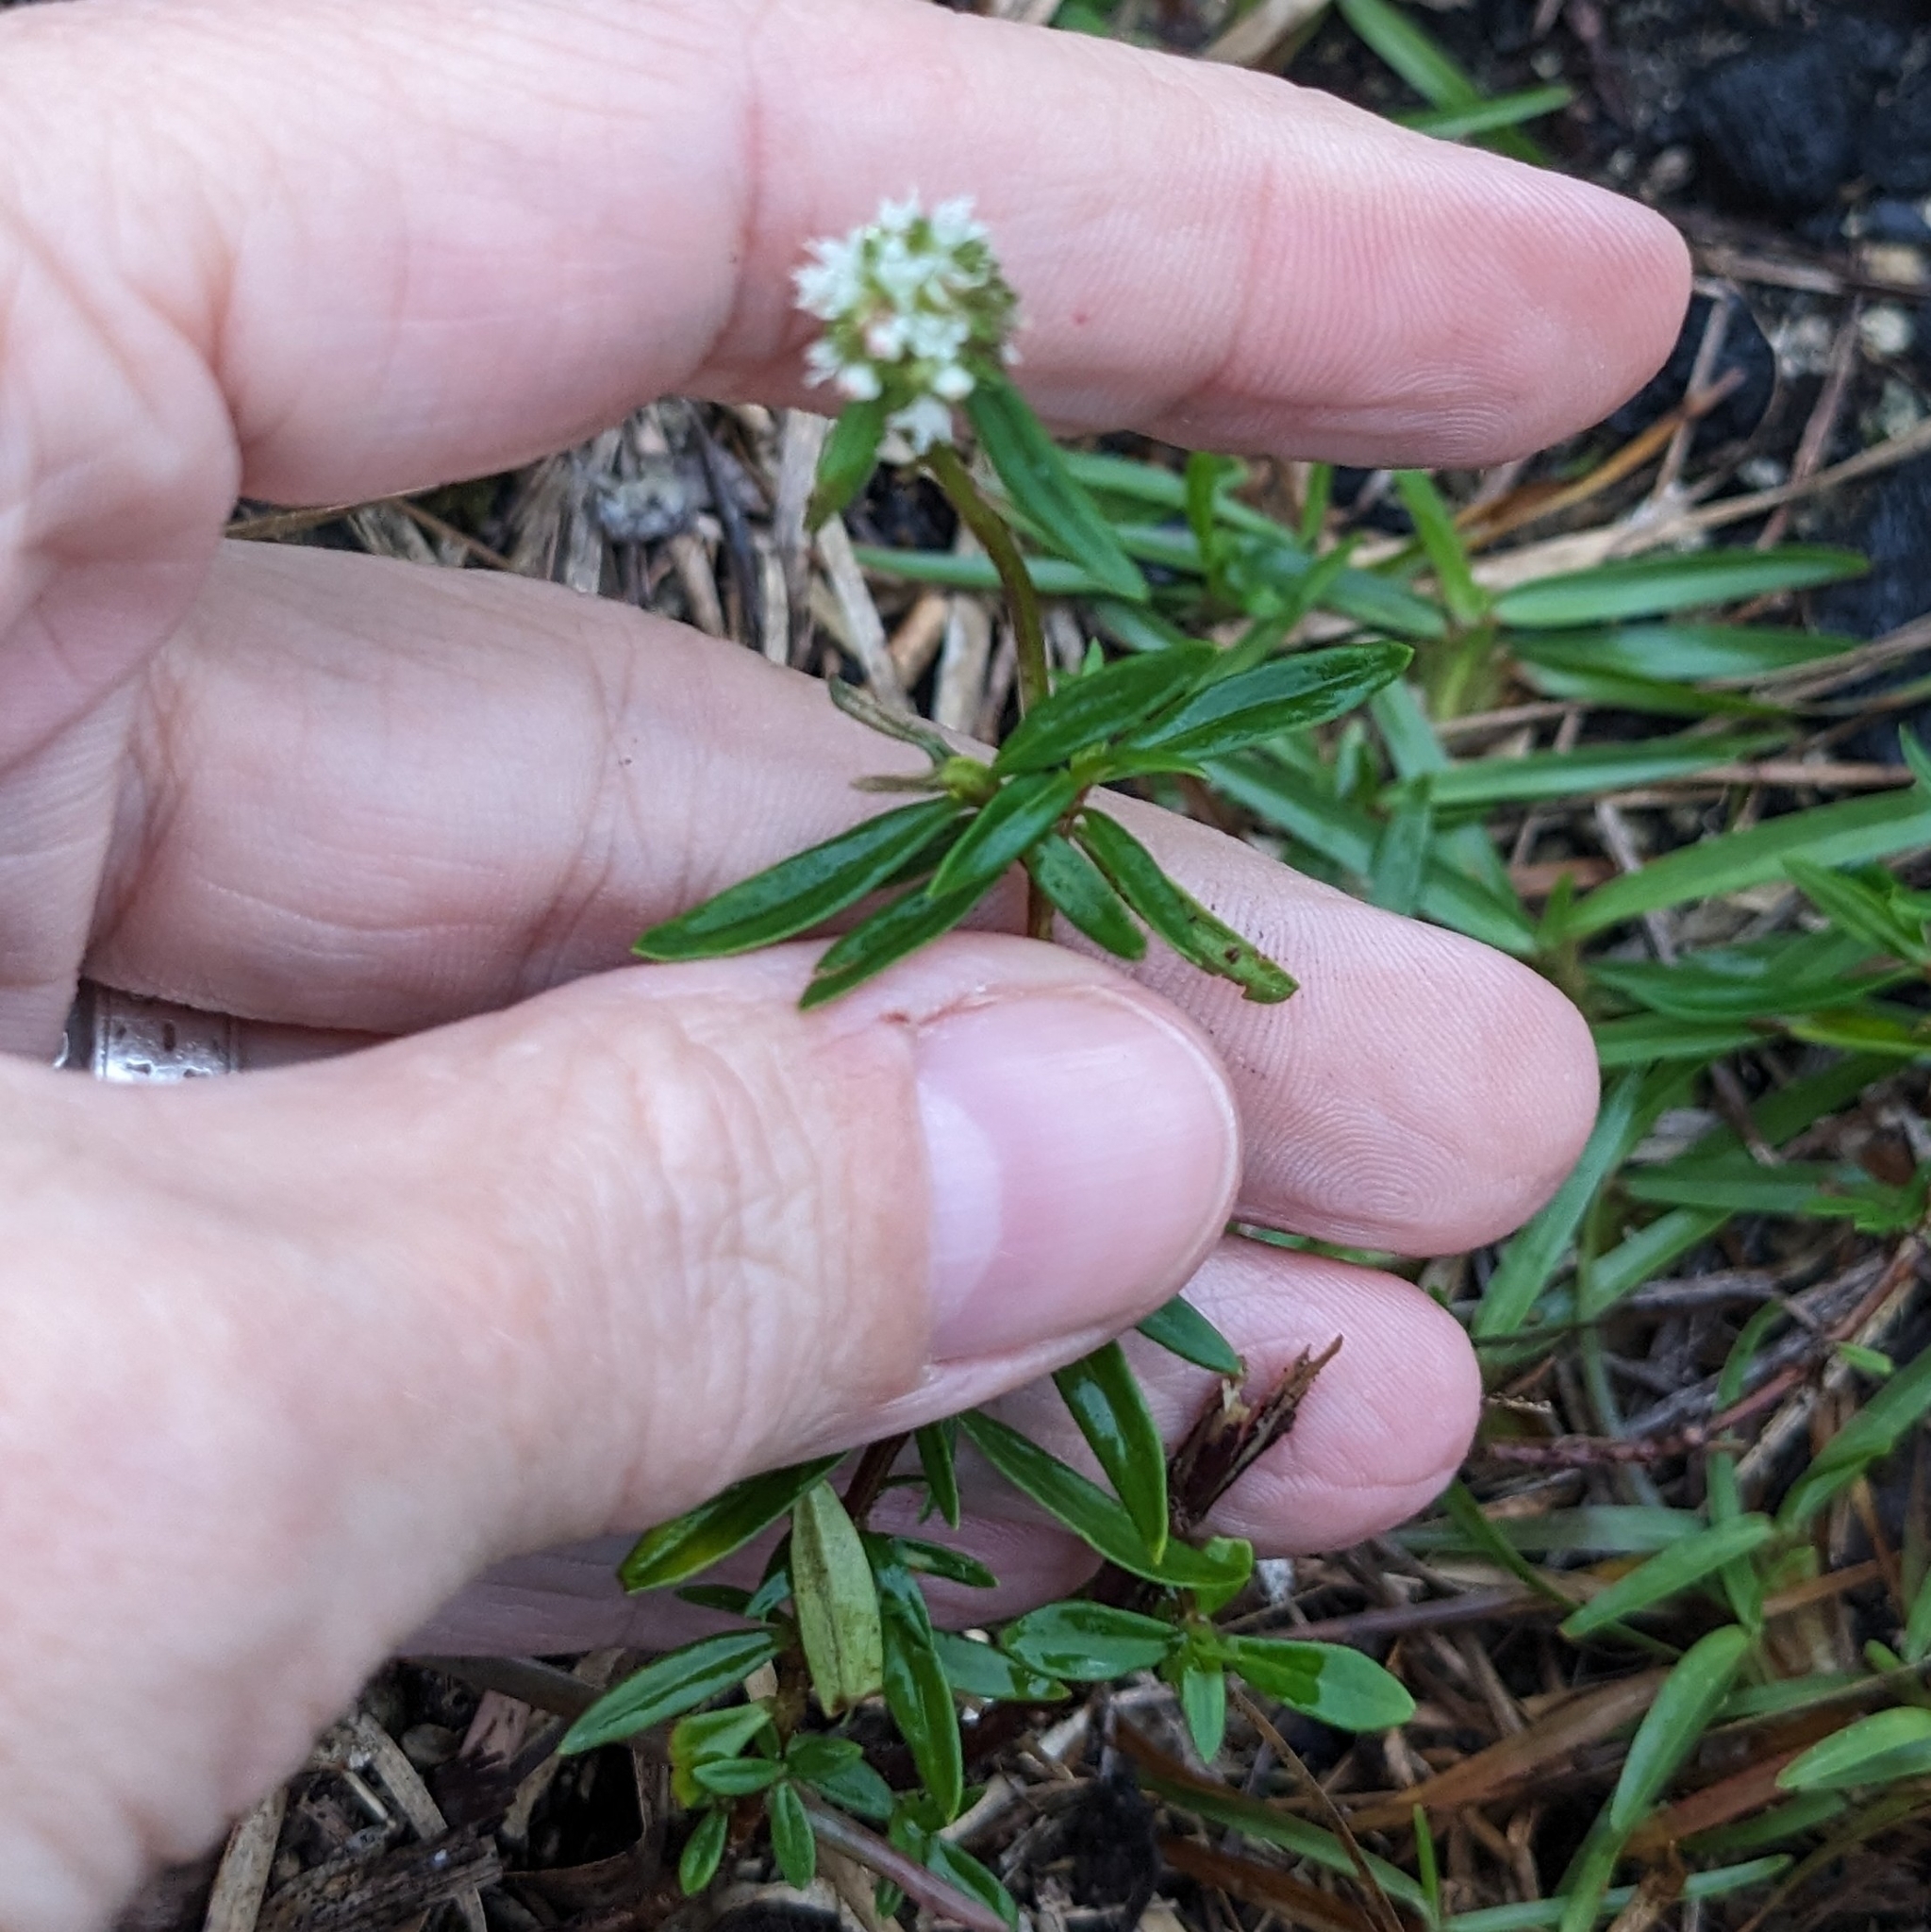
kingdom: Plantae
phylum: Tracheophyta
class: Magnoliopsida
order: Gentianales
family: Rubiaceae
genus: Spermacoce
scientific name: Spermacoce verticillata
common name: Shrubby false buttonweed
